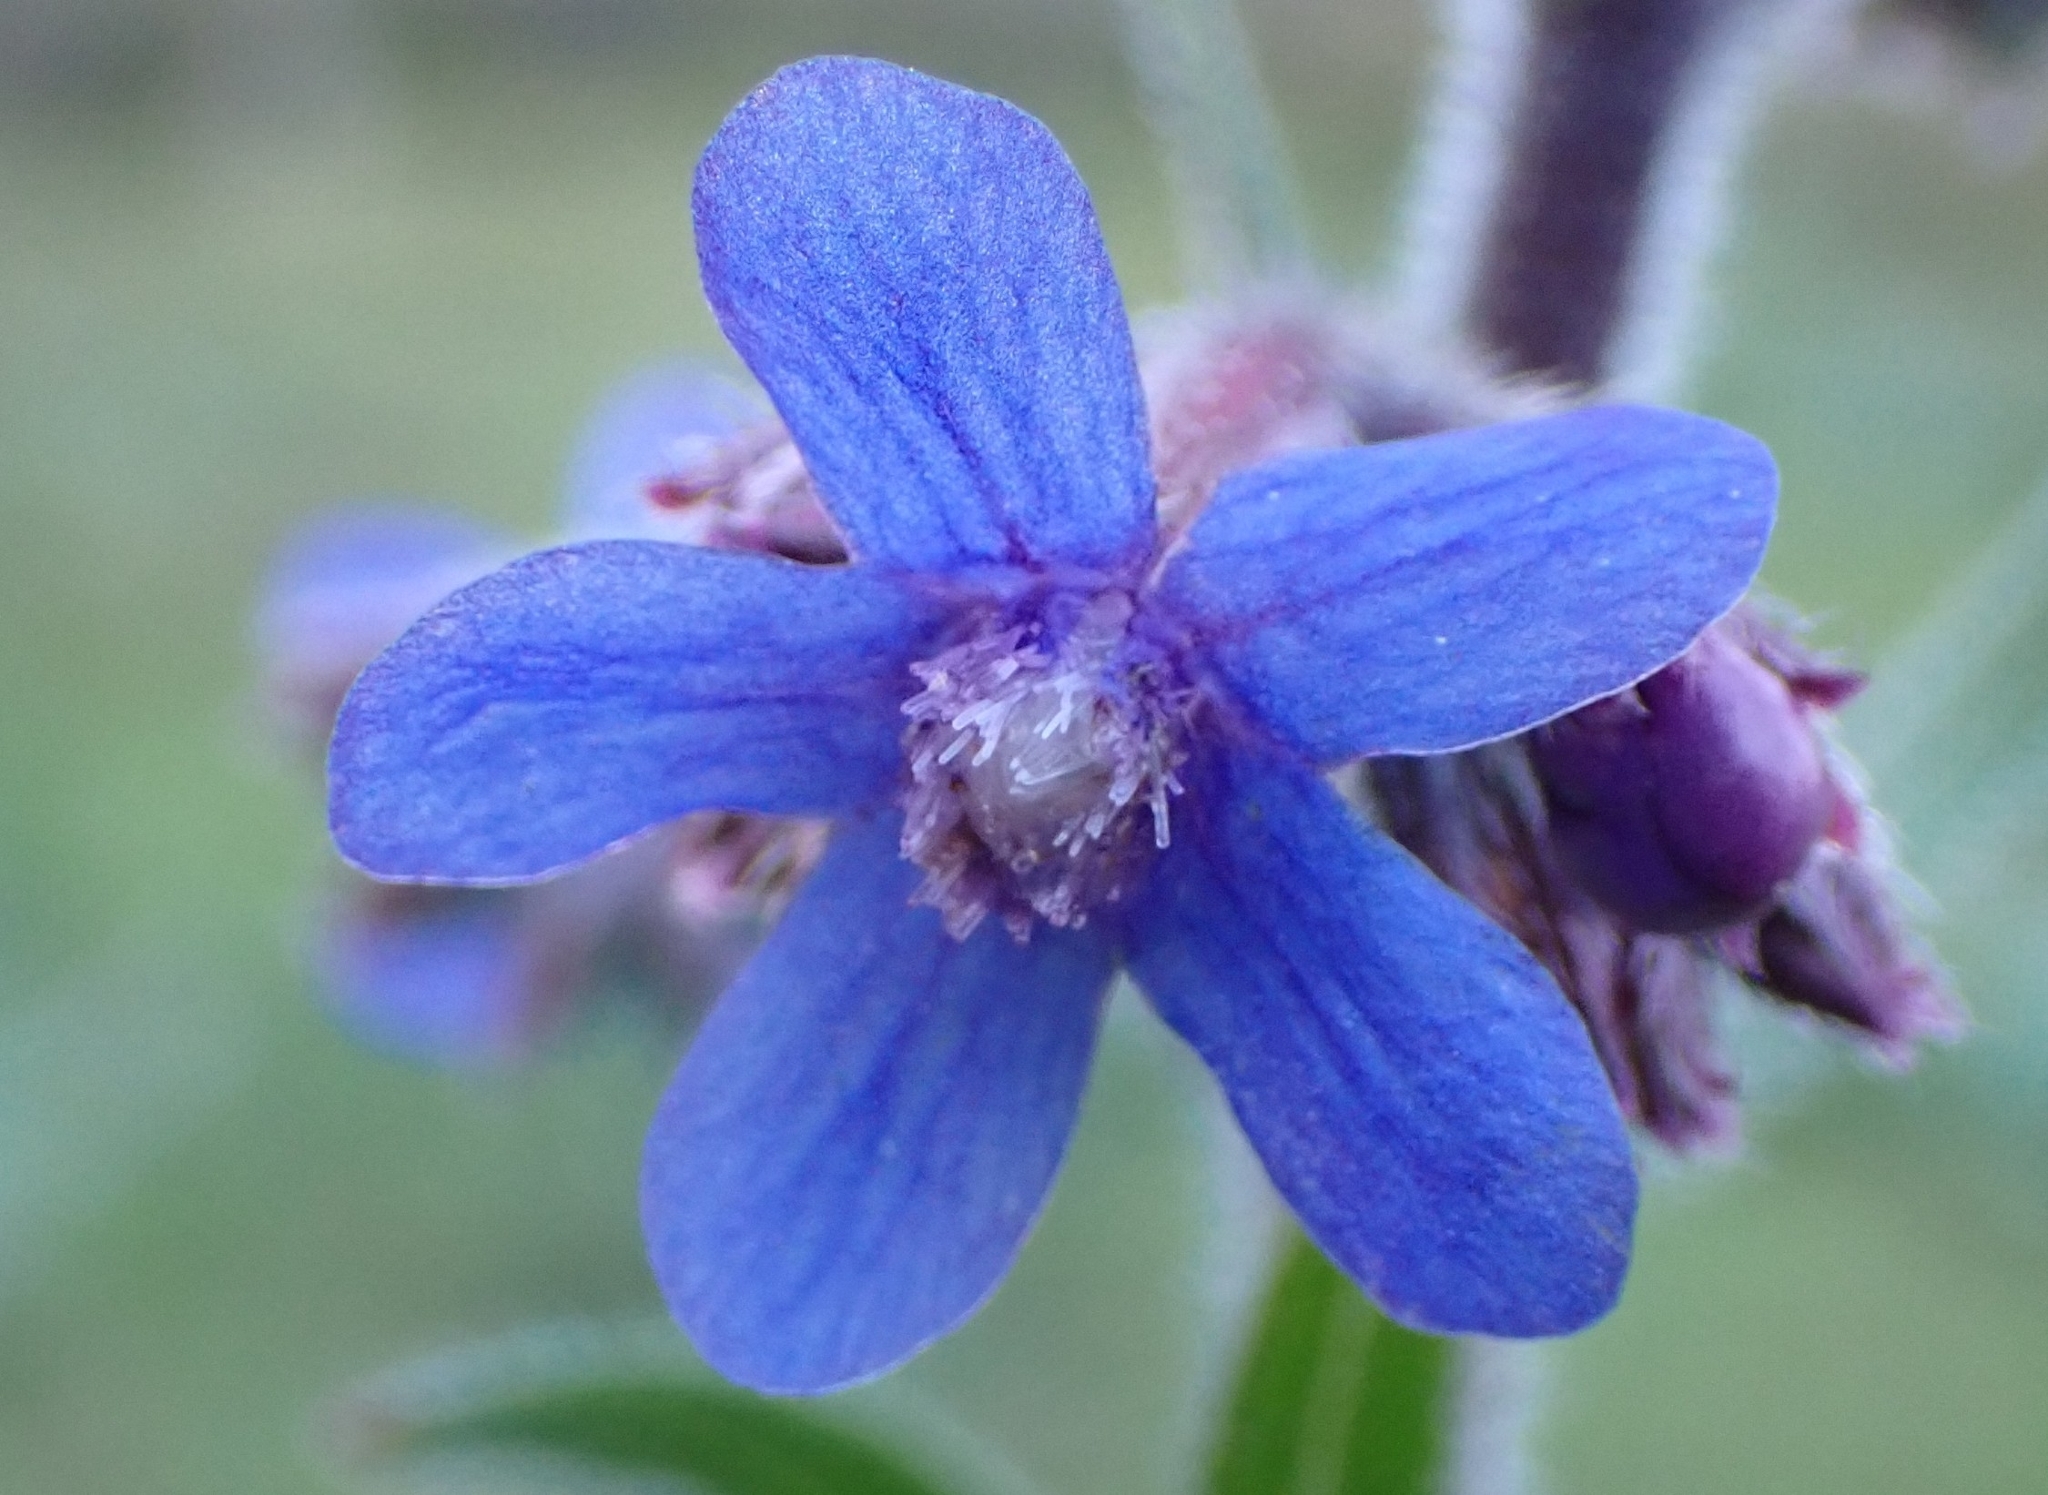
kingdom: Plantae
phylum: Tracheophyta
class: Magnoliopsida
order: Boraginales
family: Boraginaceae
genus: Anchusa
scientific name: Anchusa azurea
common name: Garden anchusa
